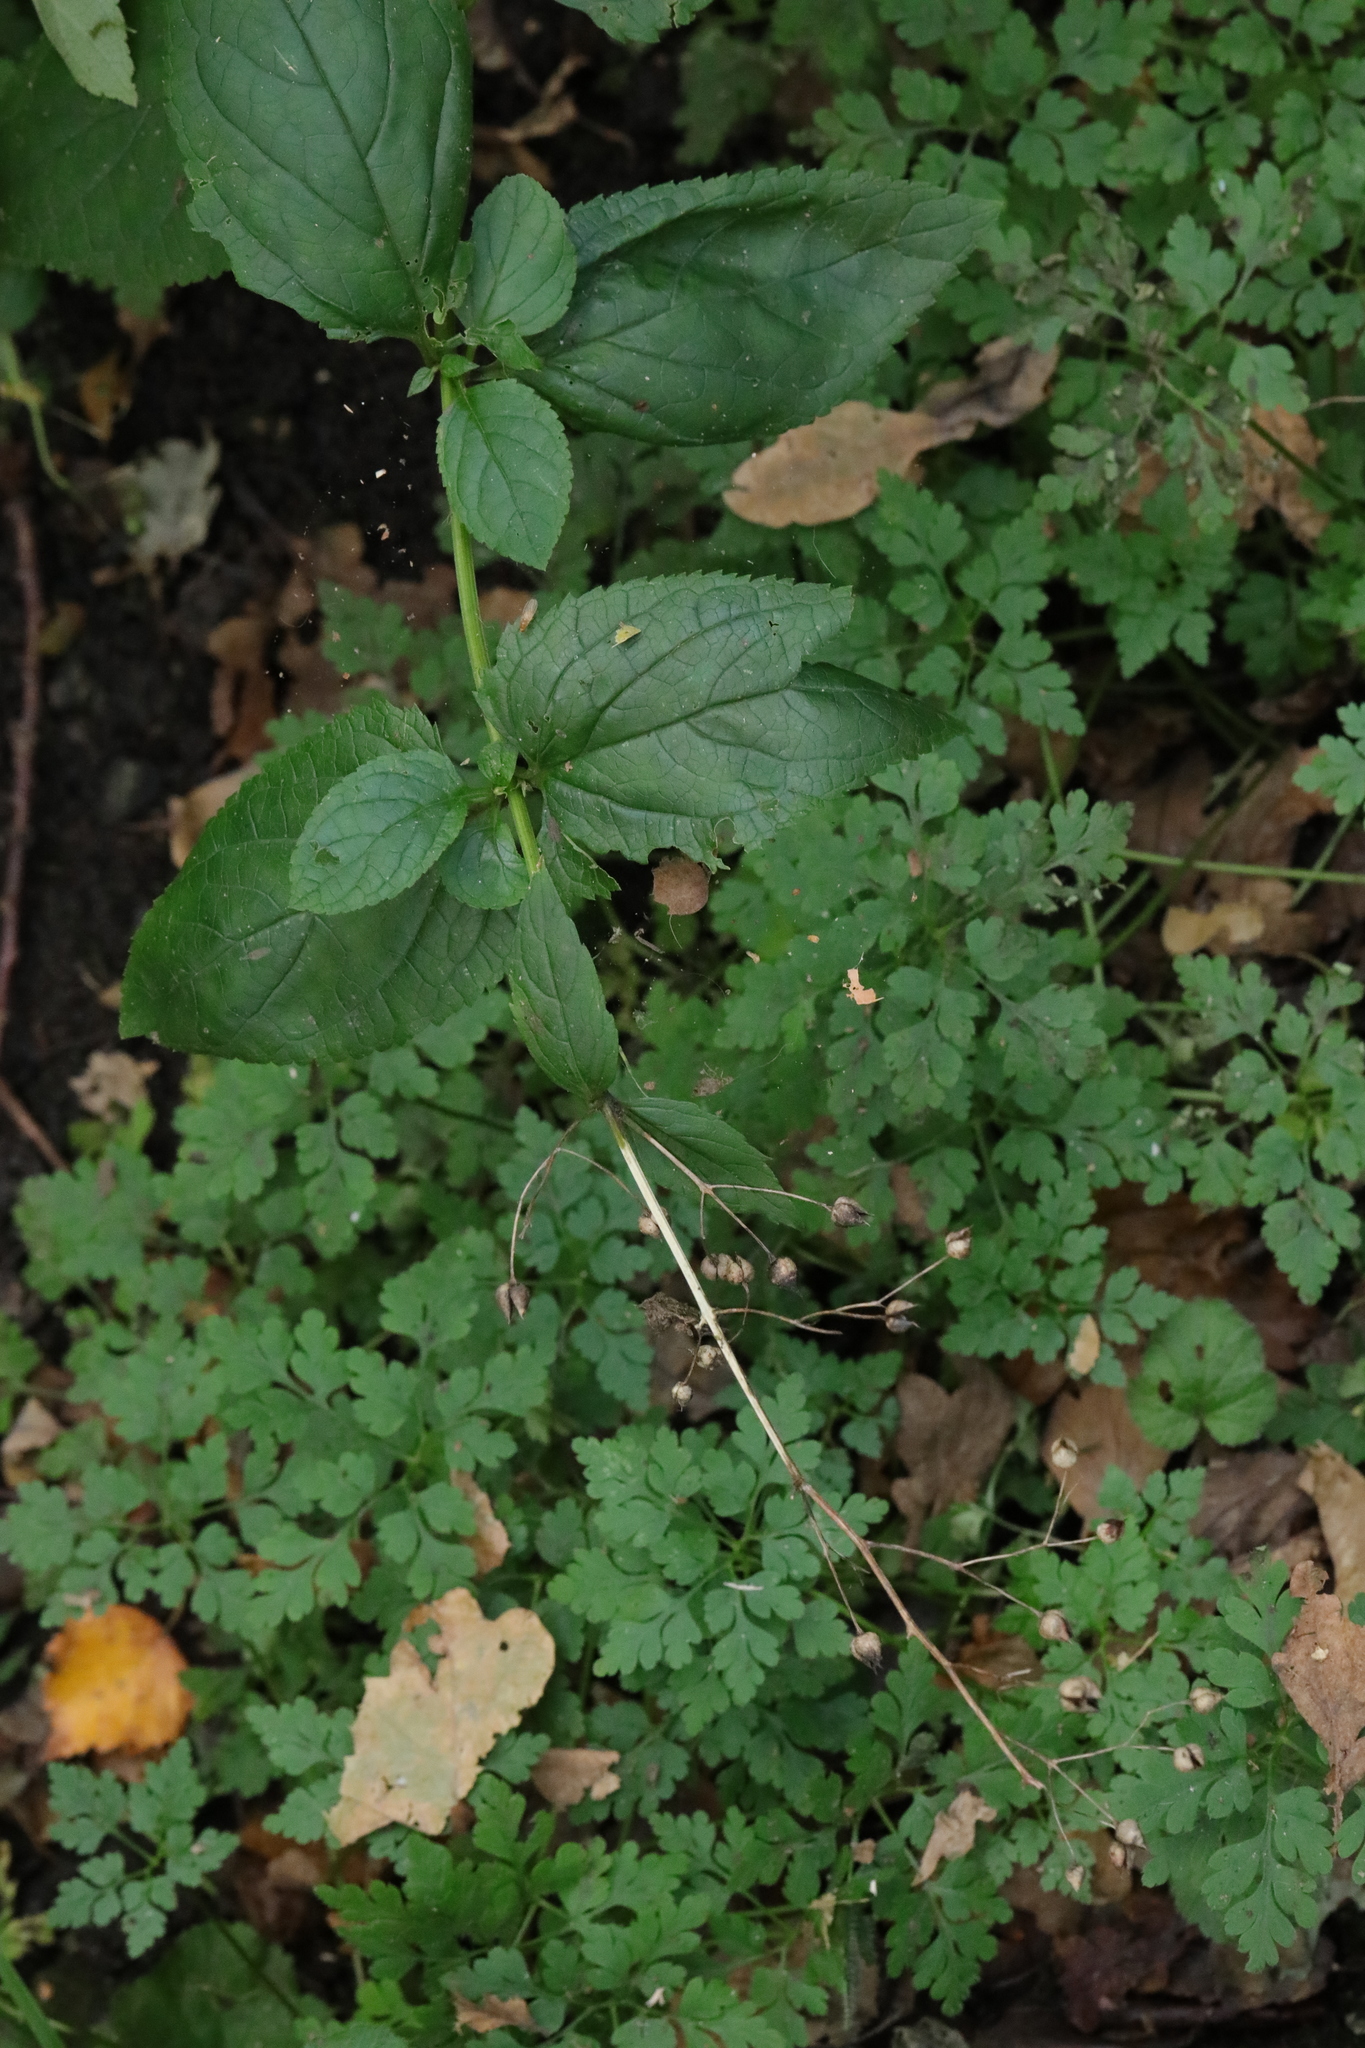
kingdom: Plantae
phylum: Tracheophyta
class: Magnoliopsida
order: Lamiales
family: Scrophulariaceae
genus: Scrophularia
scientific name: Scrophularia nodosa
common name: Common figwort
